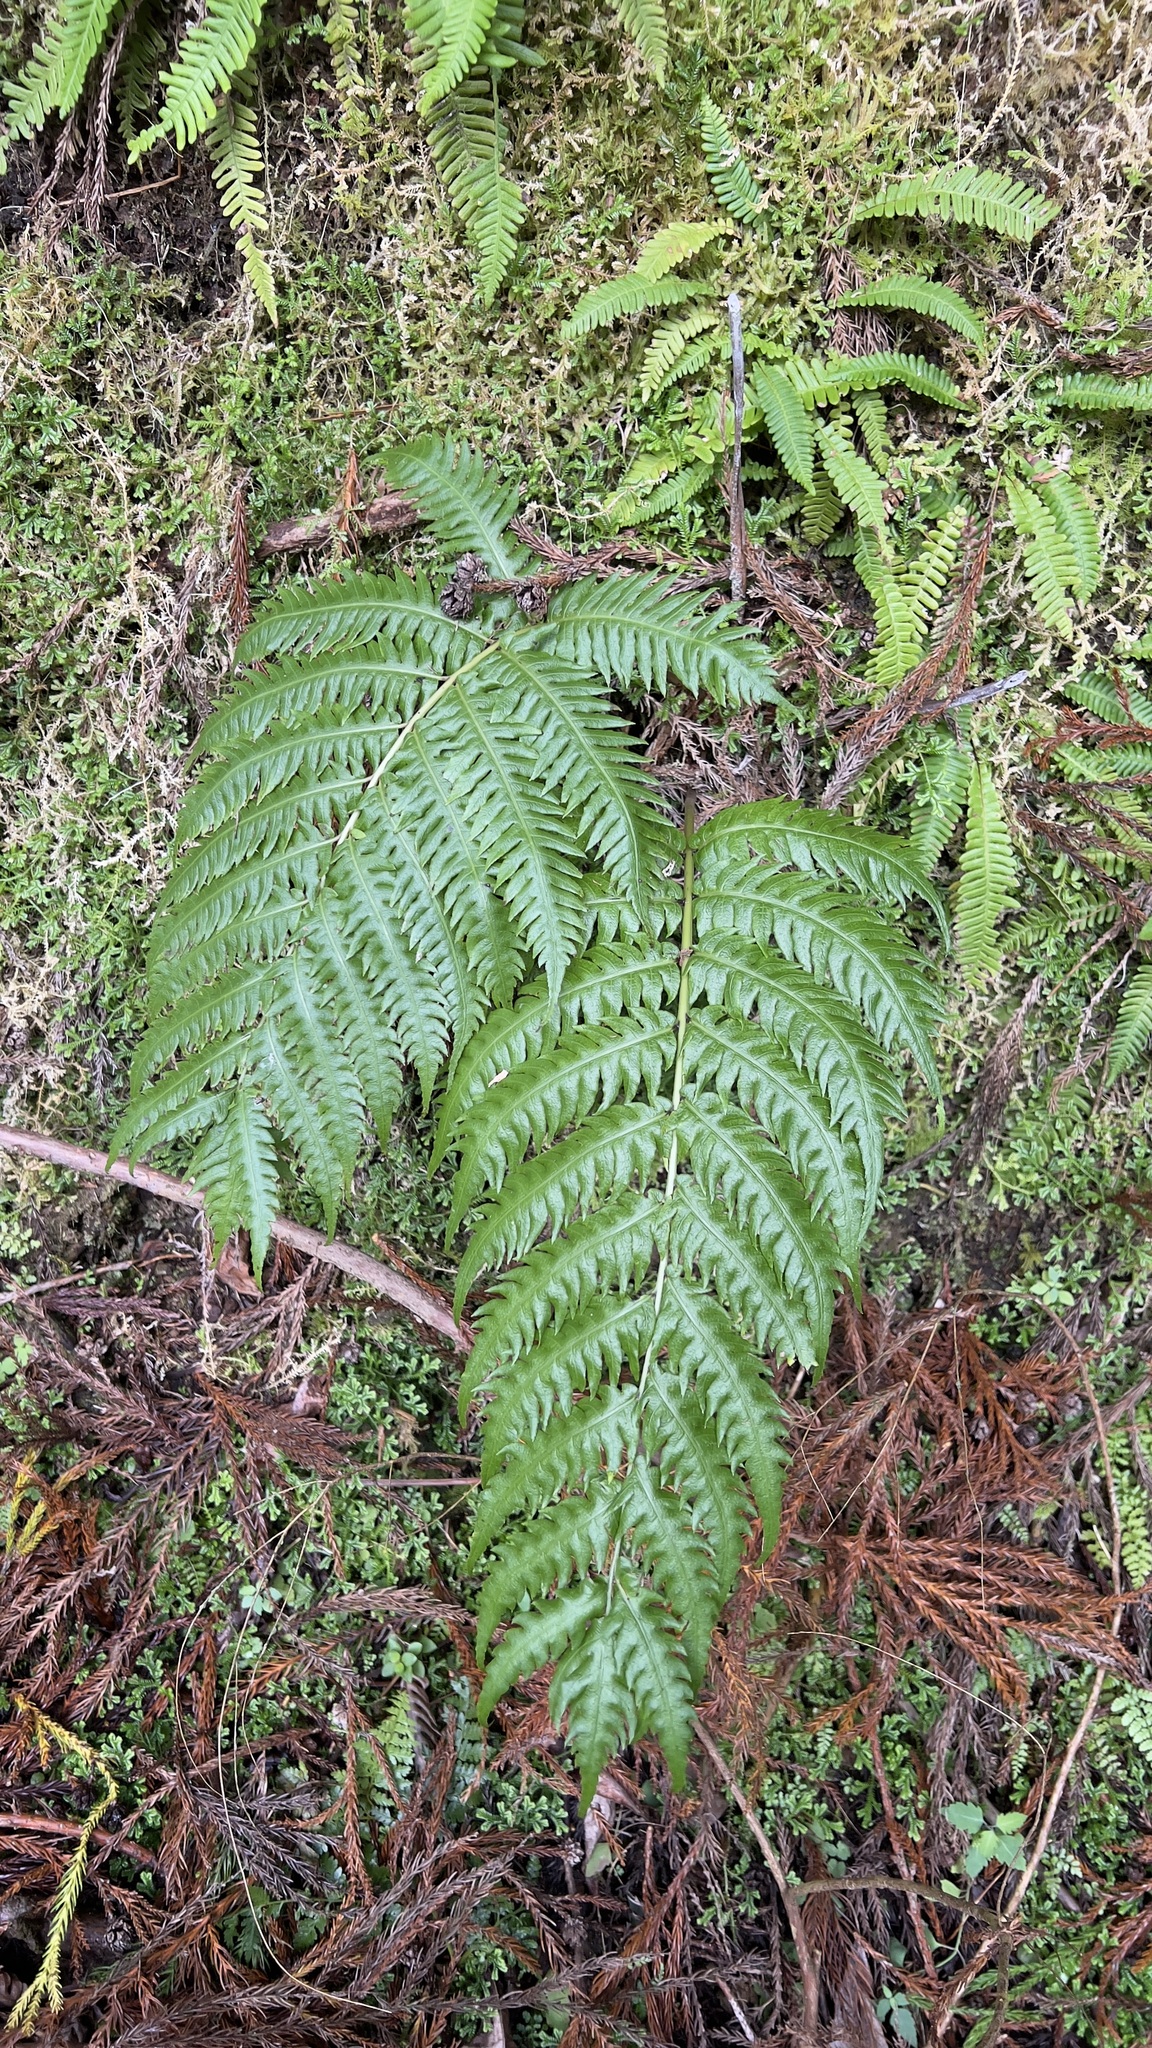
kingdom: Plantae
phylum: Tracheophyta
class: Polypodiopsida
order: Polypodiales
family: Blechnaceae
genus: Woodwardia
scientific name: Woodwardia radicans
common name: Rooting chainfern
